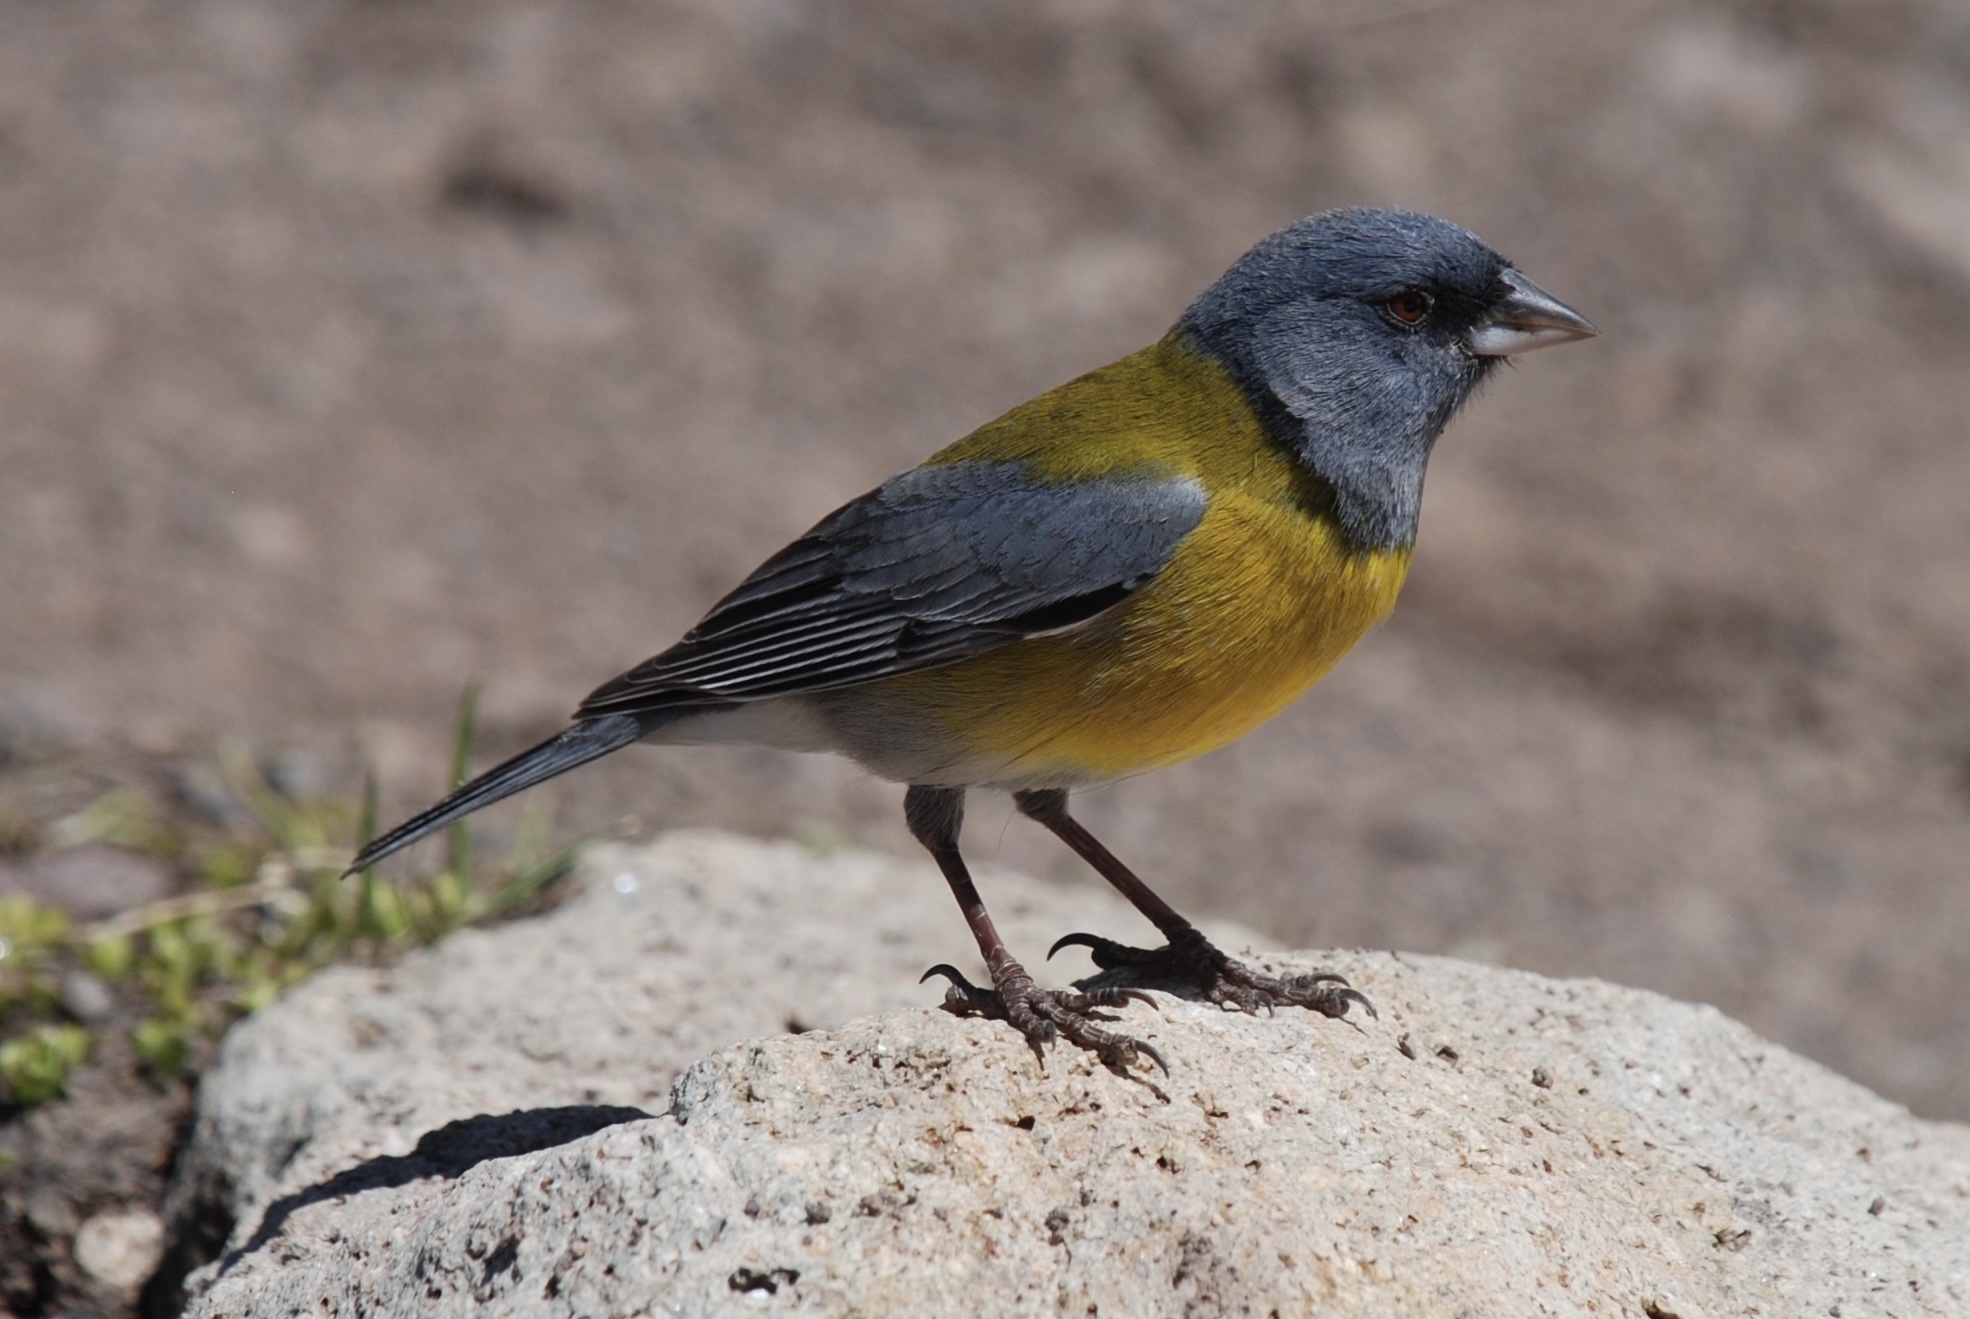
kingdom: Animalia
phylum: Chordata
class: Aves
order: Passeriformes
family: Thraupidae
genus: Phrygilus
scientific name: Phrygilus gayi
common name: Grey-hooded sierra finch
